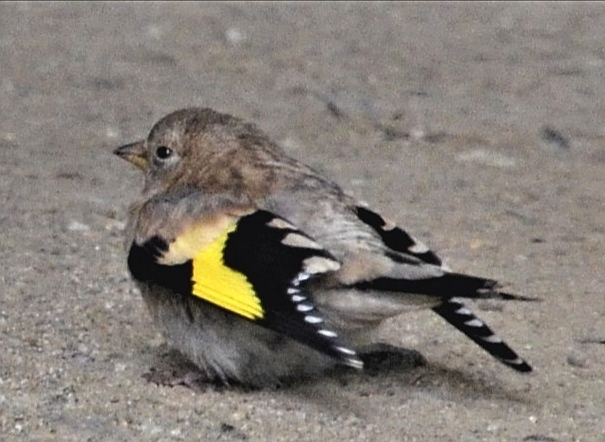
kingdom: Animalia
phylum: Chordata
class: Aves
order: Passeriformes
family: Fringillidae
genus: Carduelis
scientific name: Carduelis carduelis
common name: European goldfinch
